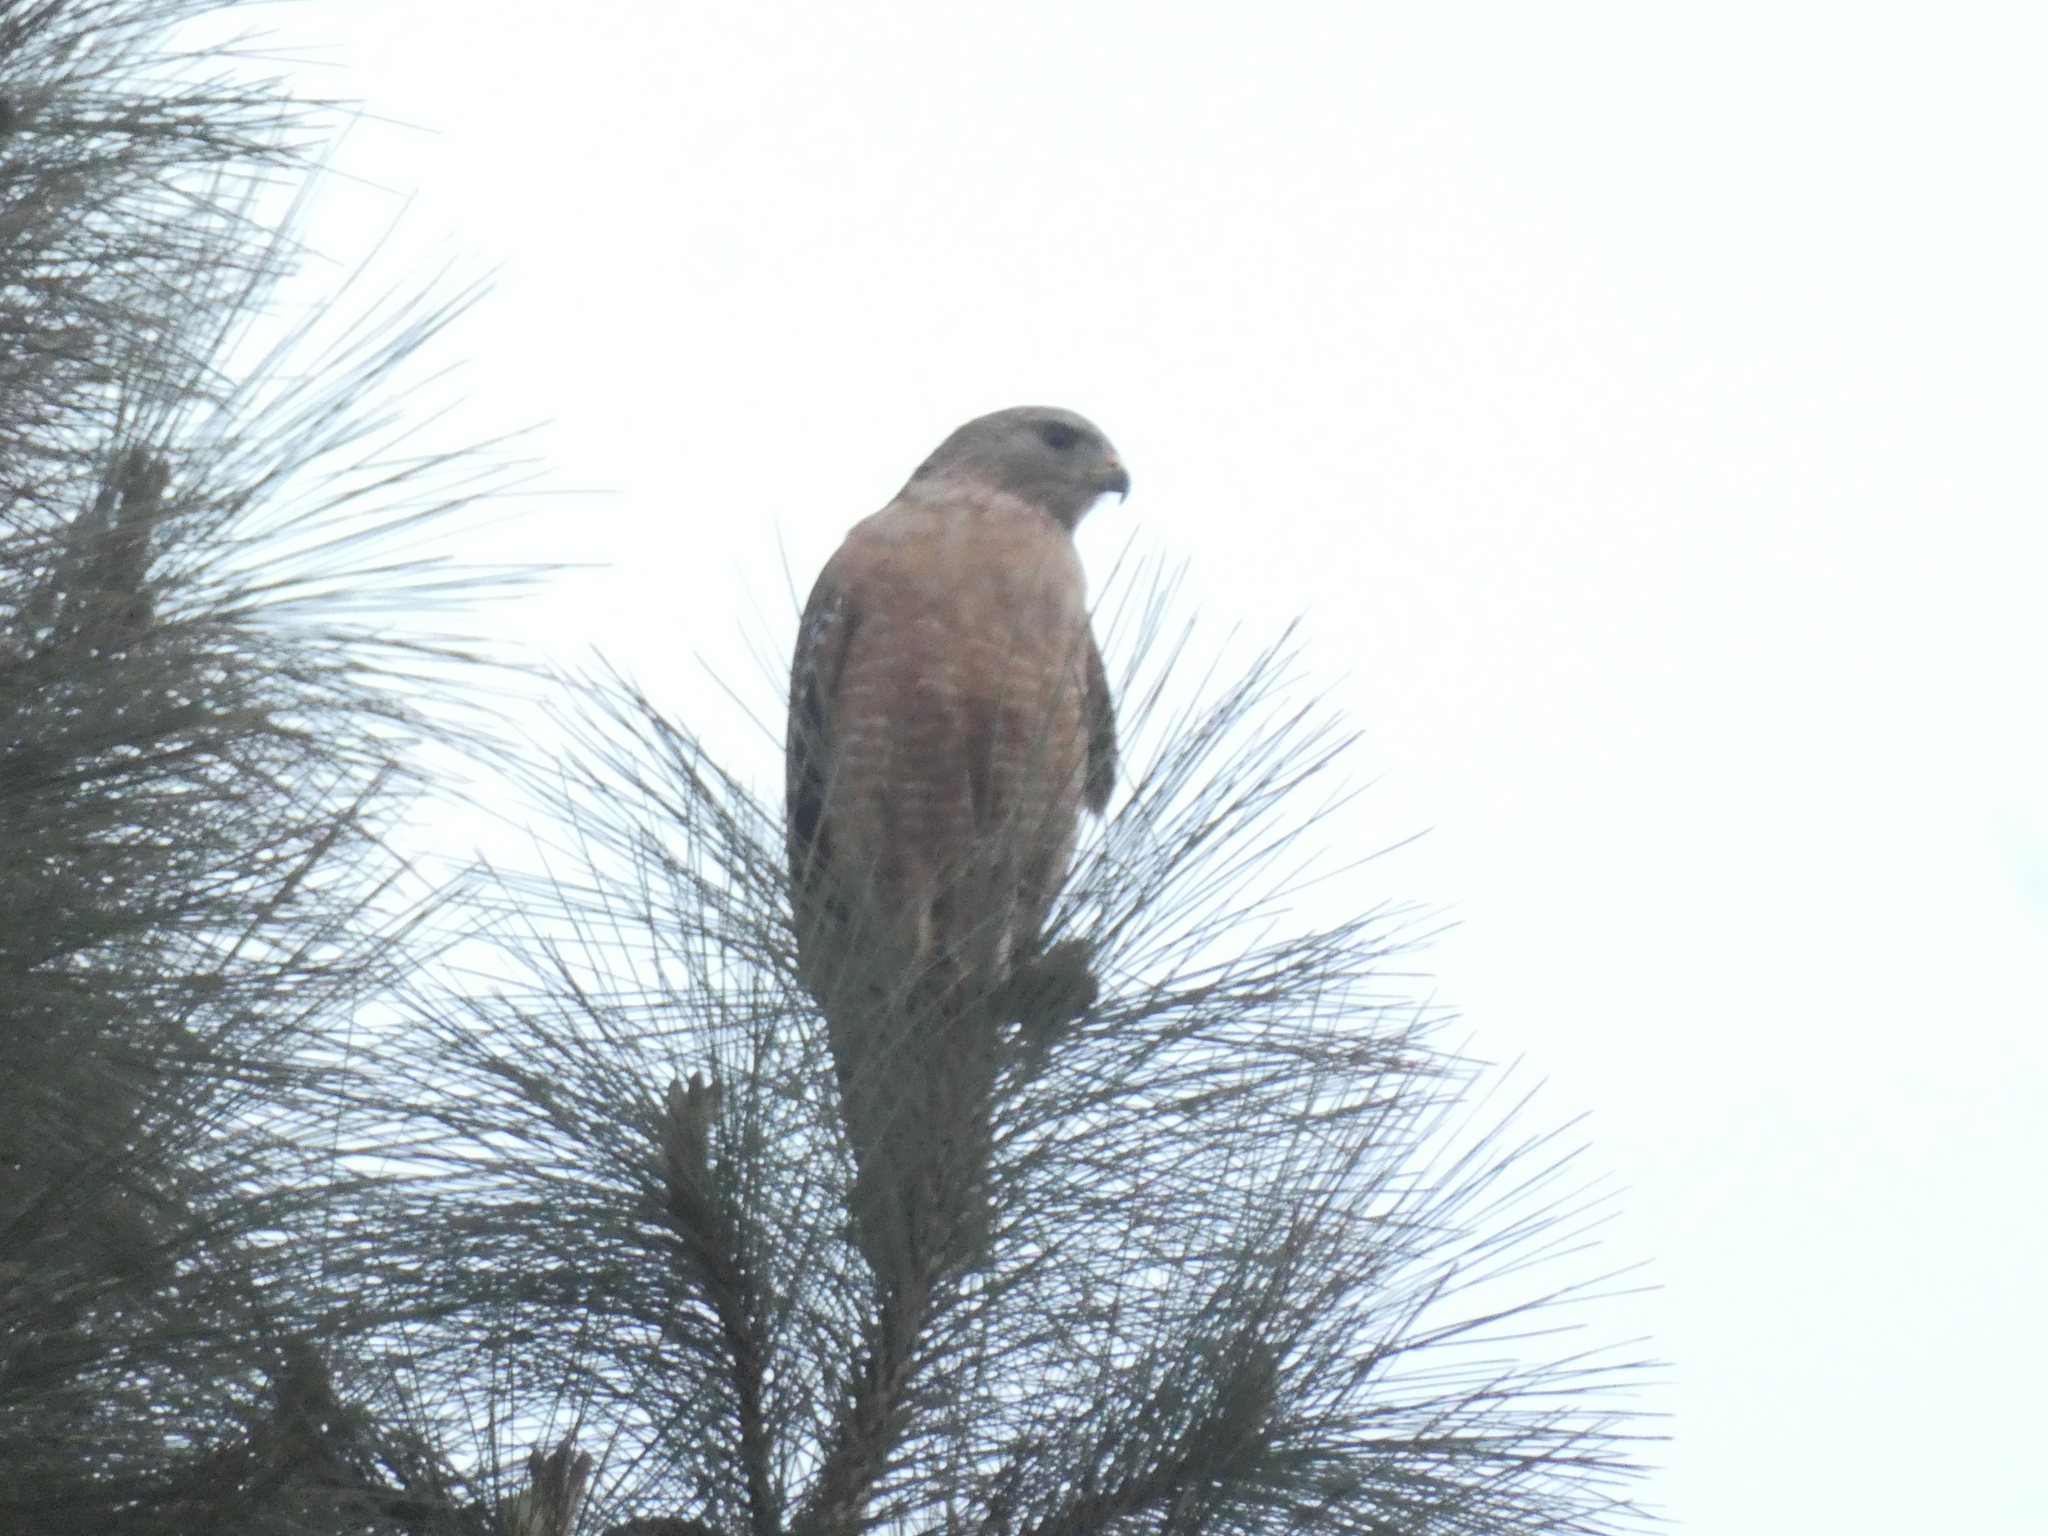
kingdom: Animalia
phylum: Chordata
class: Aves
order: Accipitriformes
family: Accipitridae
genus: Buteo
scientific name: Buteo lineatus
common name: Red-shouldered hawk
